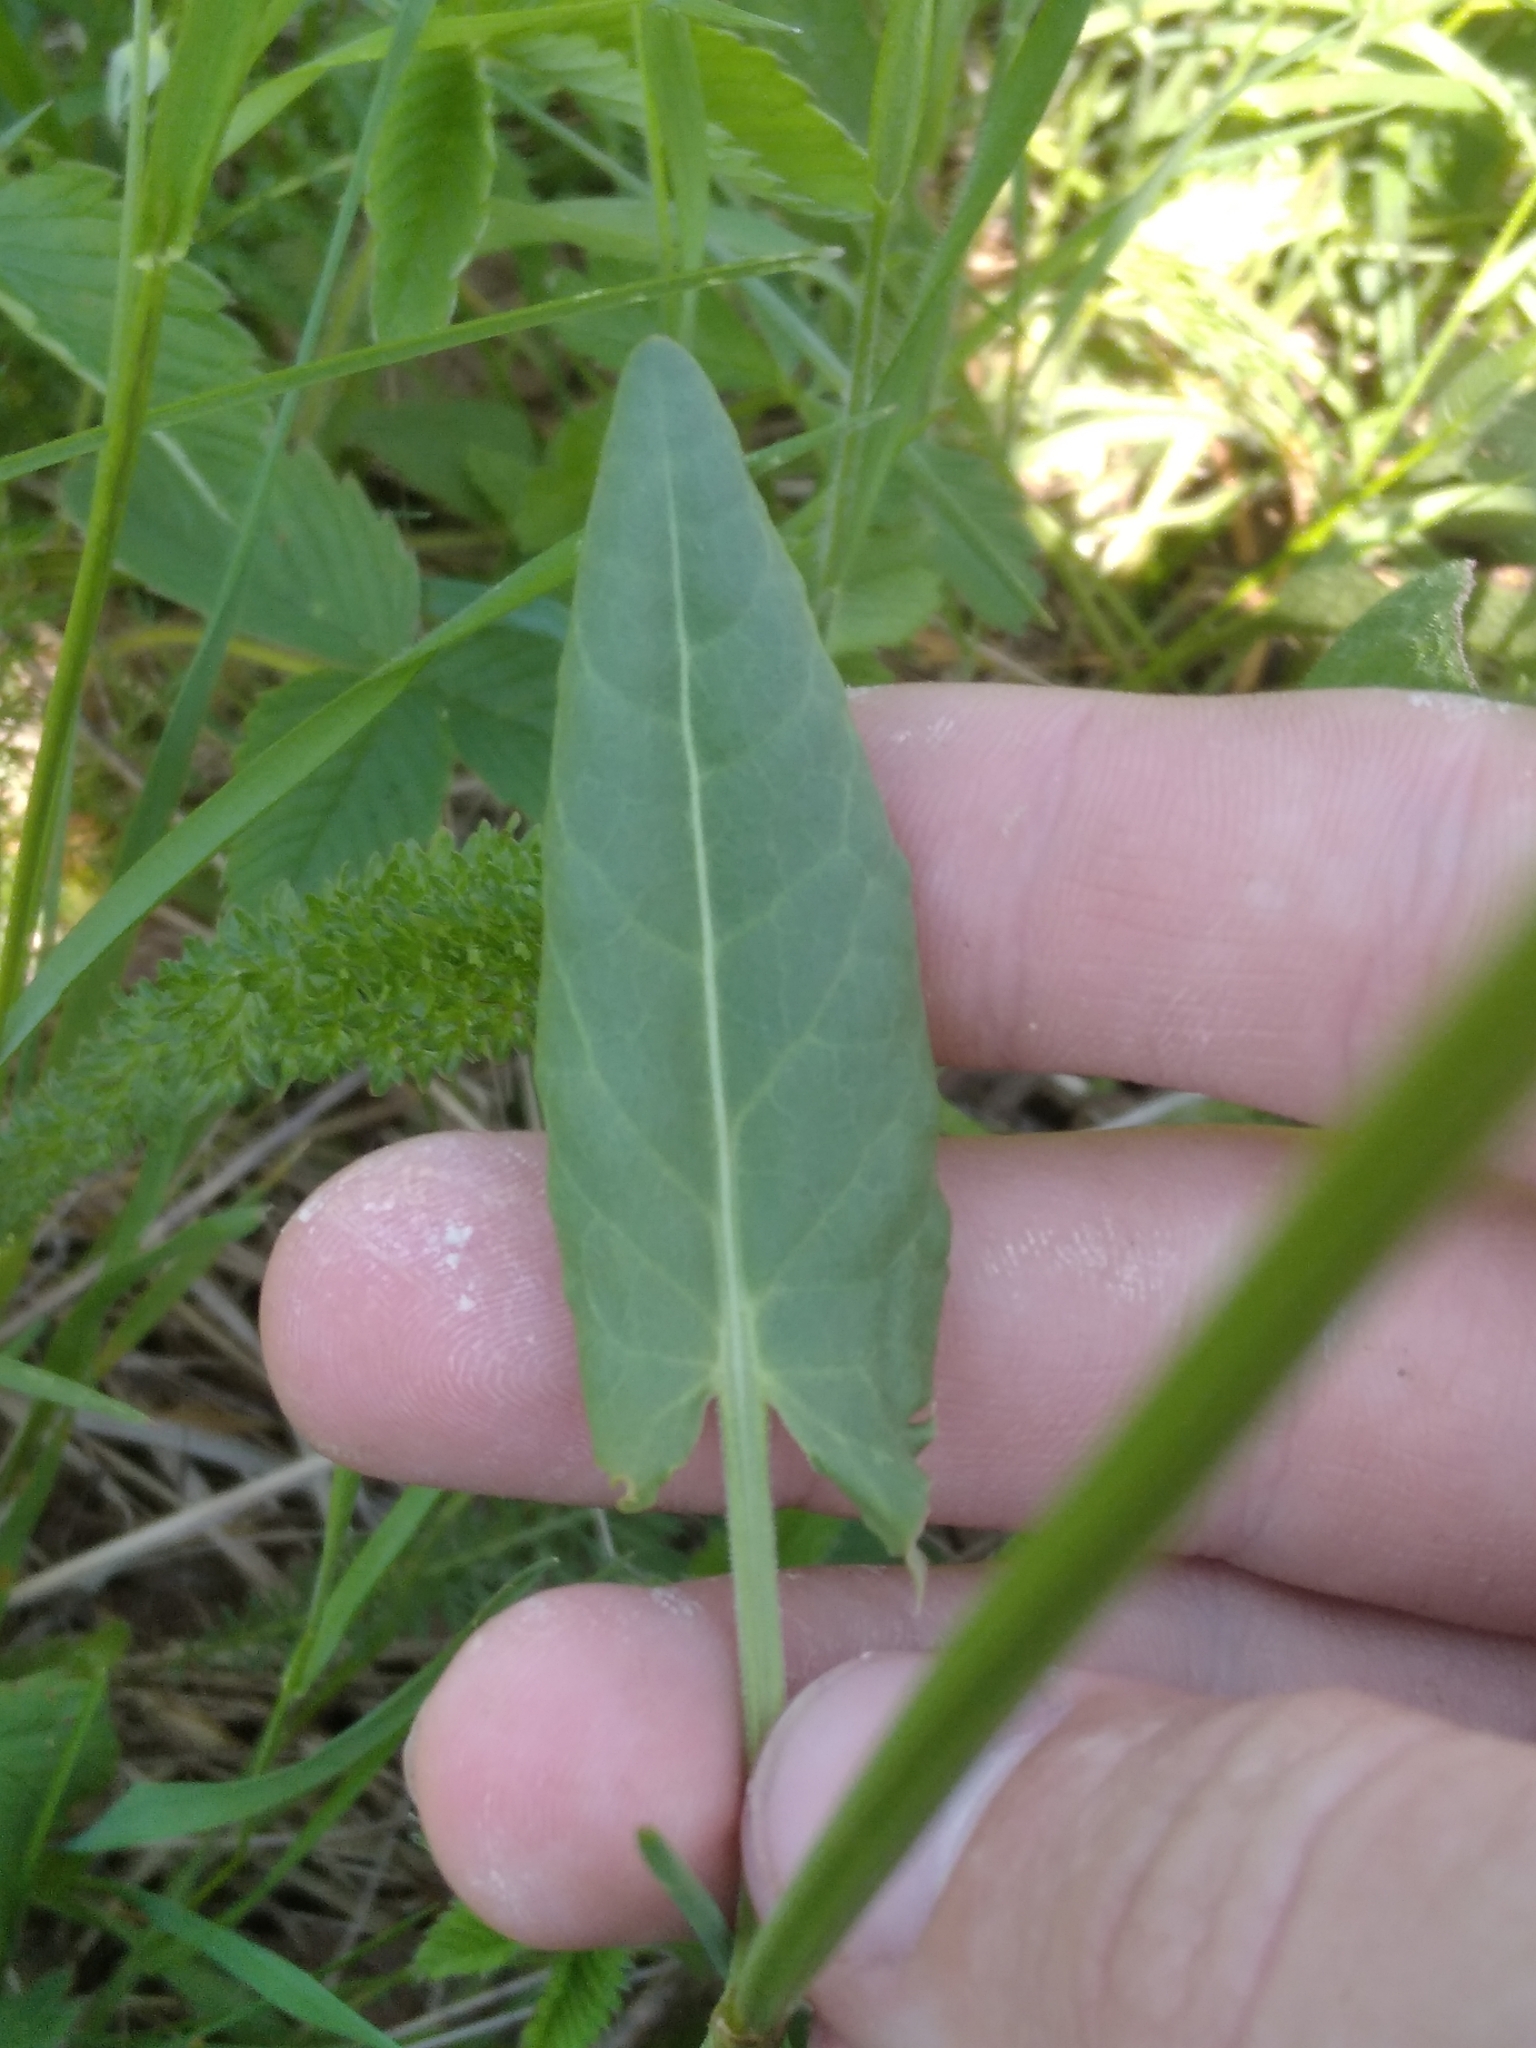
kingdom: Plantae
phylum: Tracheophyta
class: Magnoliopsida
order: Caryophyllales
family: Polygonaceae
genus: Rumex
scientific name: Rumex acetosella
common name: Common sheep sorrel
